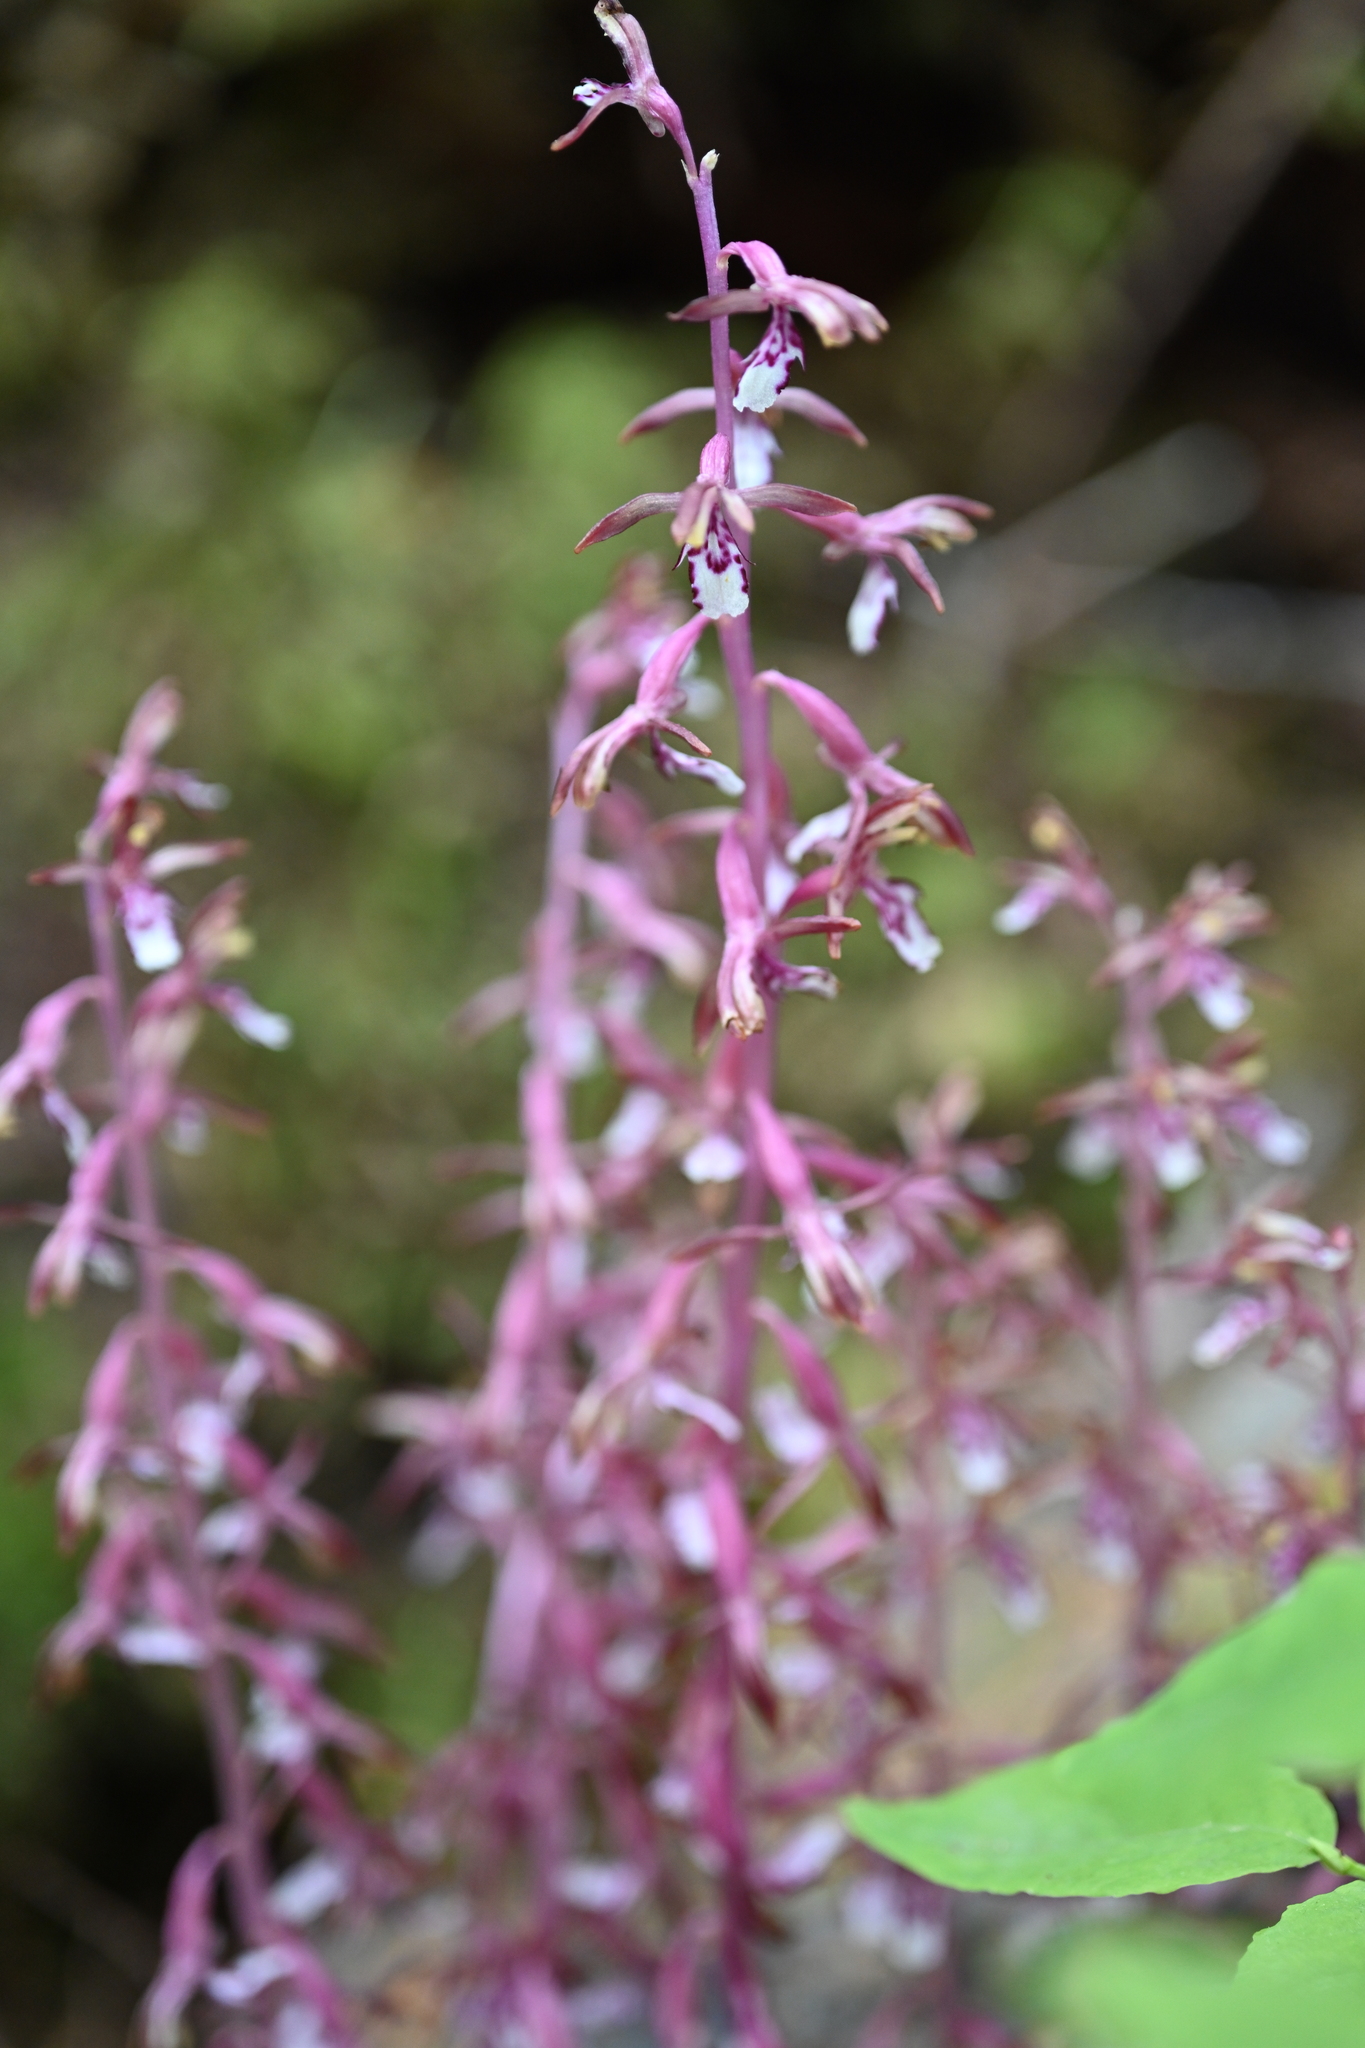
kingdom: Plantae
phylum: Tracheophyta
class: Liliopsida
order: Asparagales
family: Orchidaceae
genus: Corallorhiza
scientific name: Corallorhiza mertensiana
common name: Pacific coralroot
